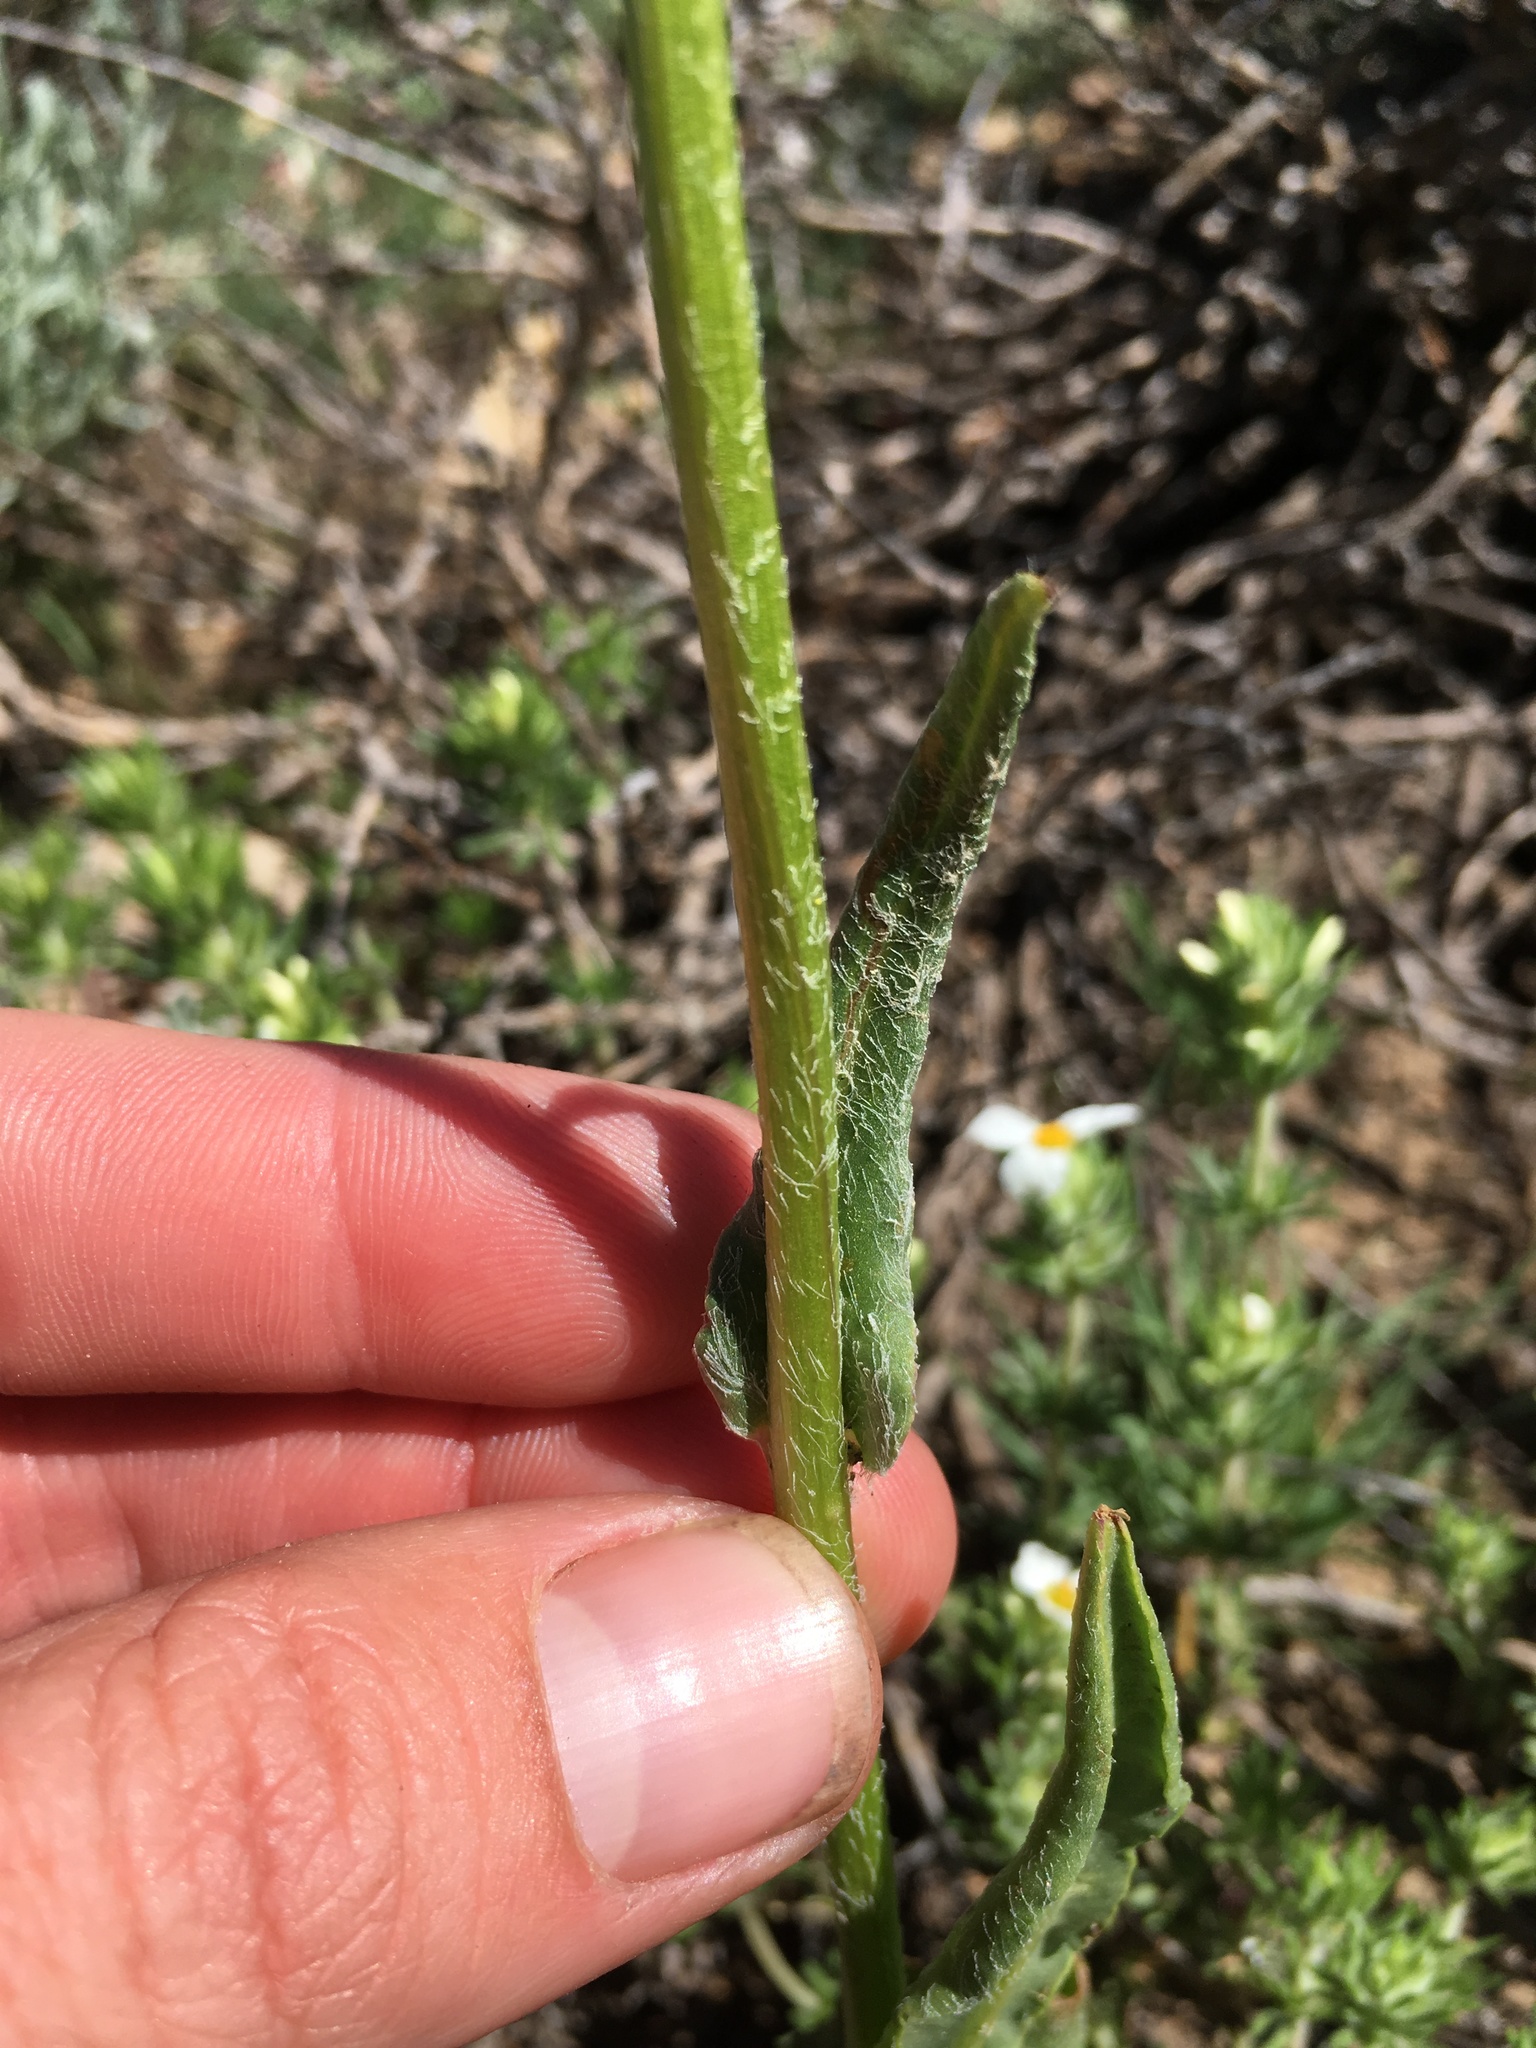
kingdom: Plantae
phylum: Tracheophyta
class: Magnoliopsida
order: Asterales
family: Asteraceae
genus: Senecio
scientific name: Senecio integerrimus
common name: Gaugeplant
